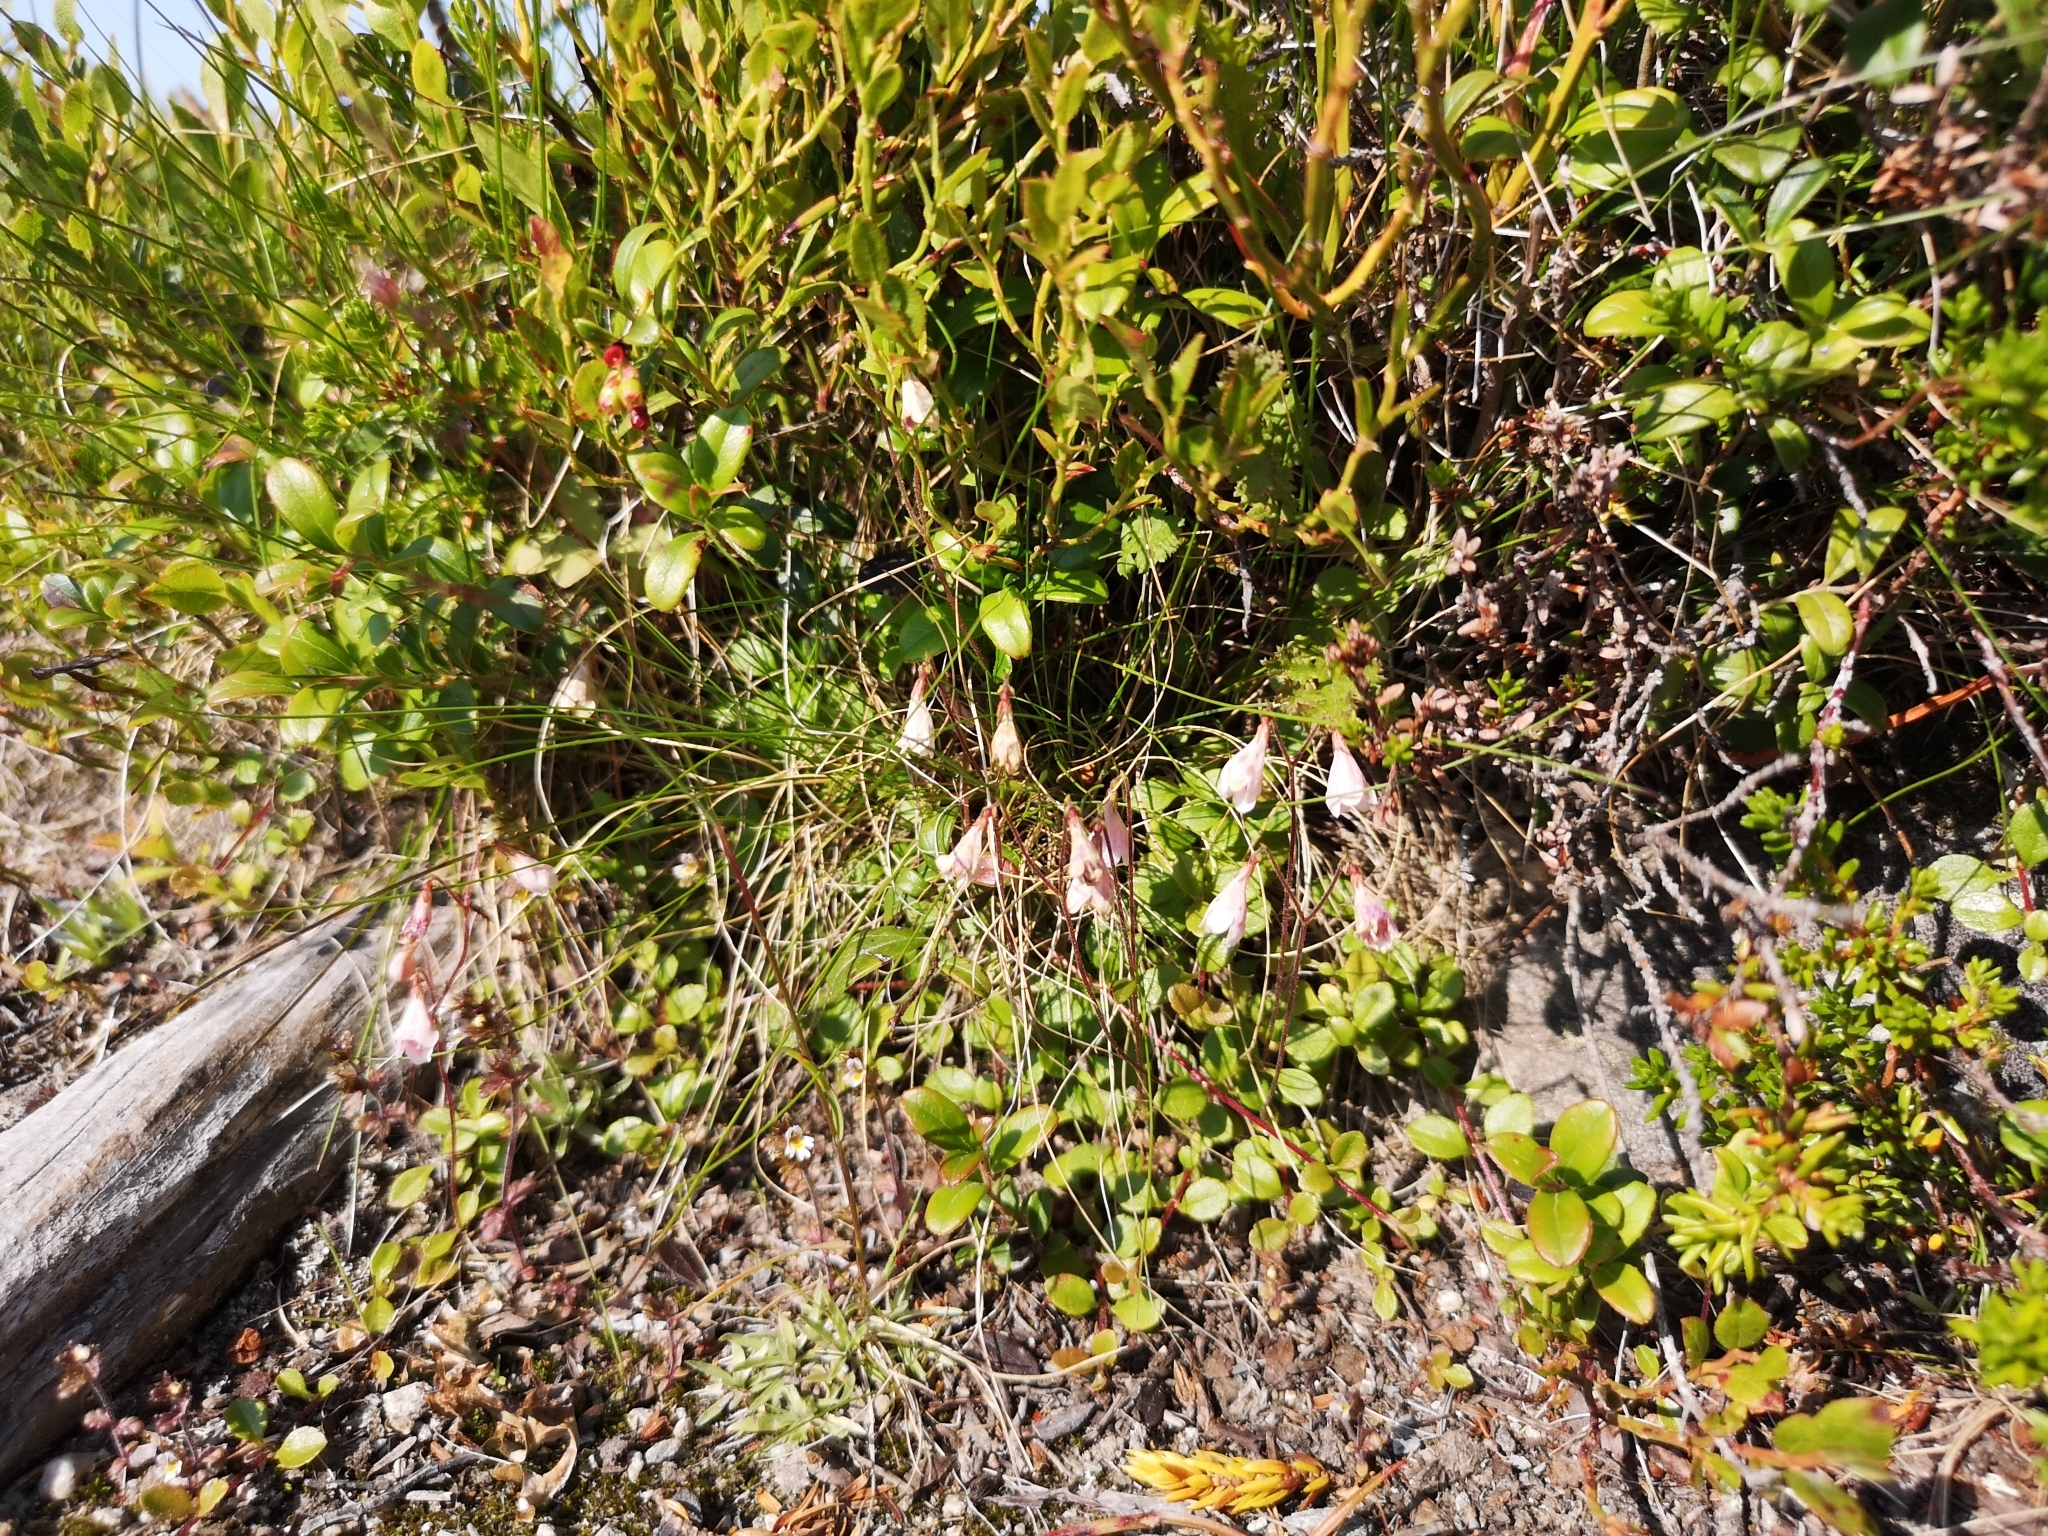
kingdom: Plantae
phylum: Tracheophyta
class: Magnoliopsida
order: Dipsacales
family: Caprifoliaceae
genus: Linnaea
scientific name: Linnaea borealis
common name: Twinflower
